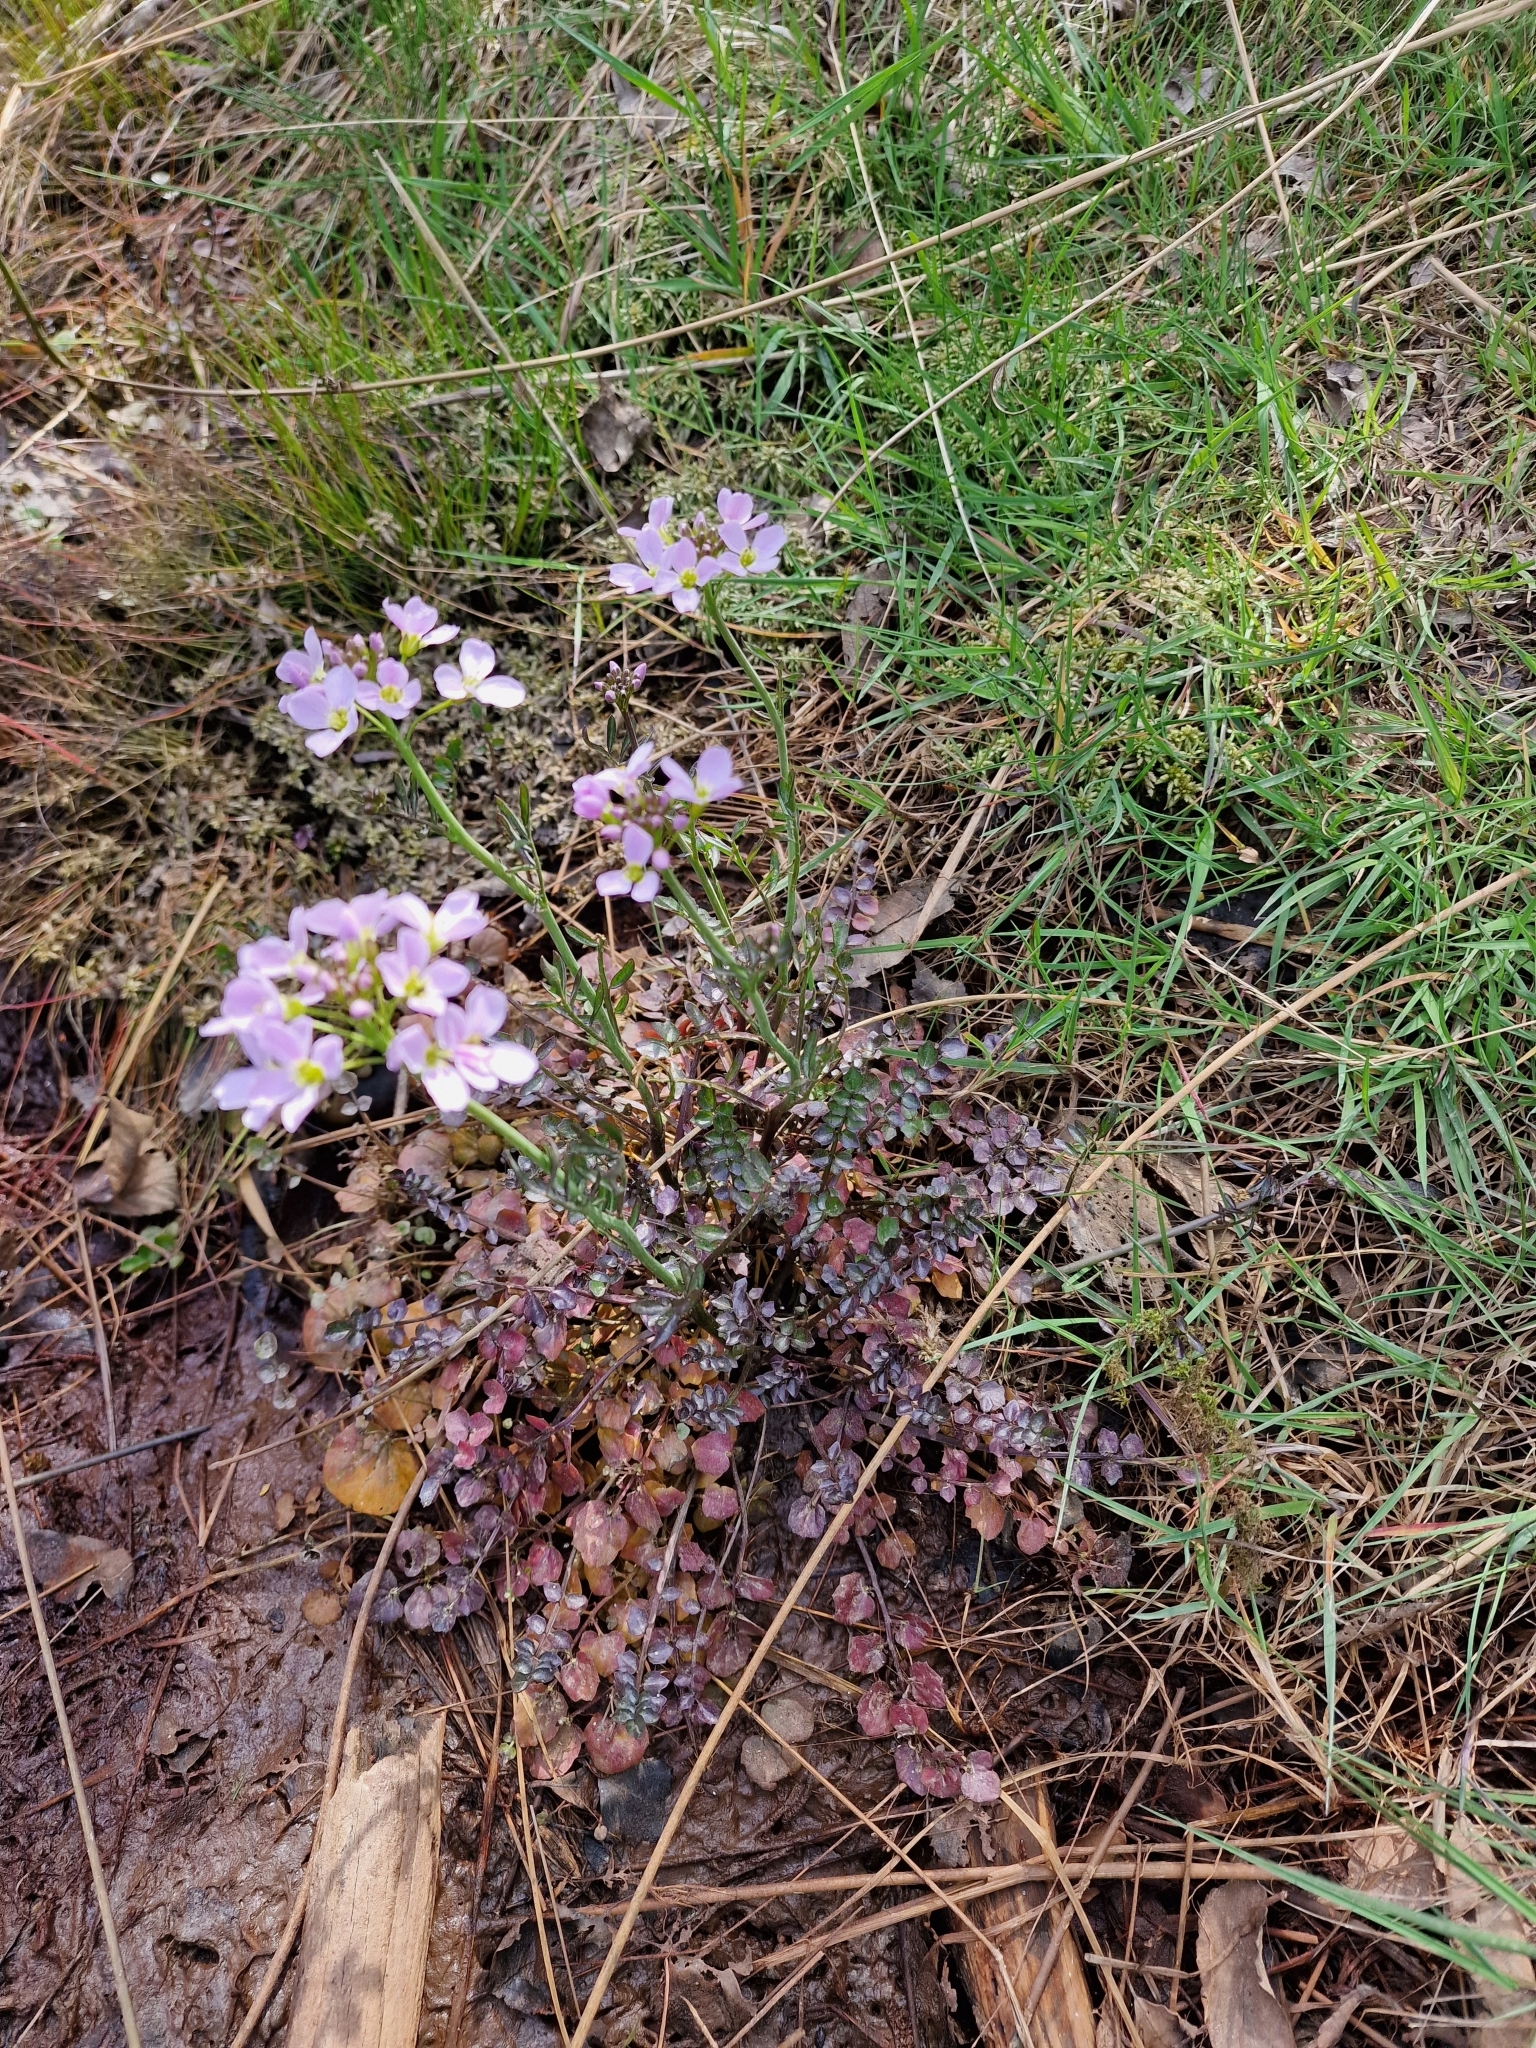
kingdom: Plantae
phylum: Tracheophyta
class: Magnoliopsida
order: Brassicales
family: Brassicaceae
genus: Cardamine
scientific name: Cardamine pratensis
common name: Cuckoo flower
